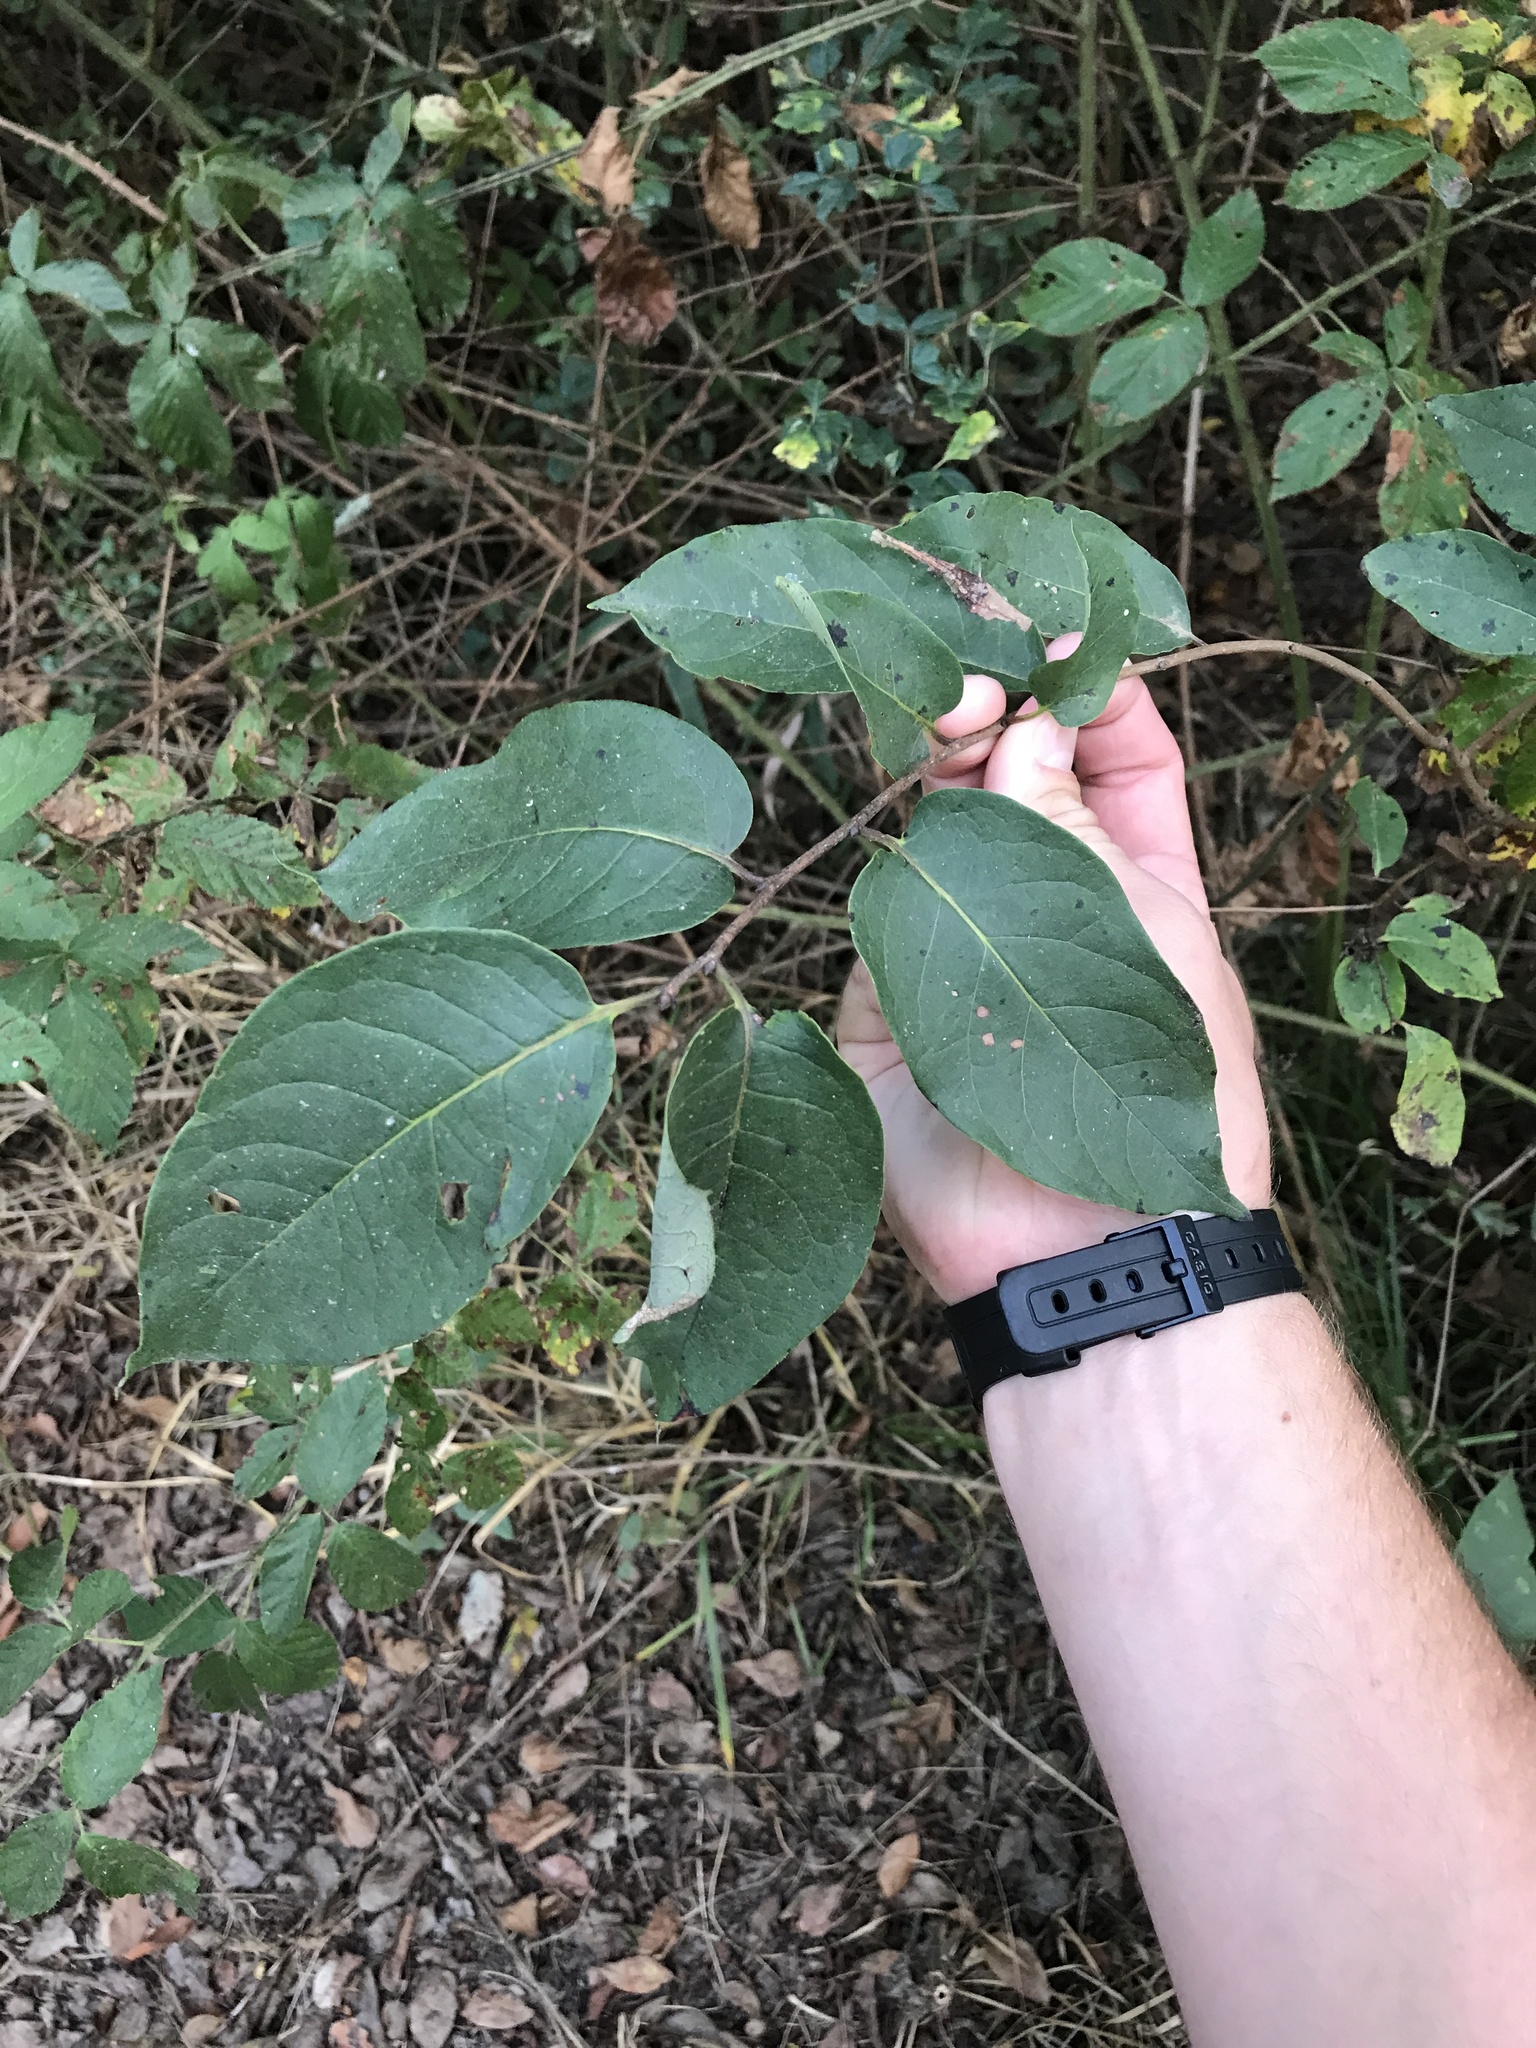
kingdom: Plantae
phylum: Tracheophyta
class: Magnoliopsida
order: Ericales
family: Ebenaceae
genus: Diospyros
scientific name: Diospyros virginiana
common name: Persimmon
